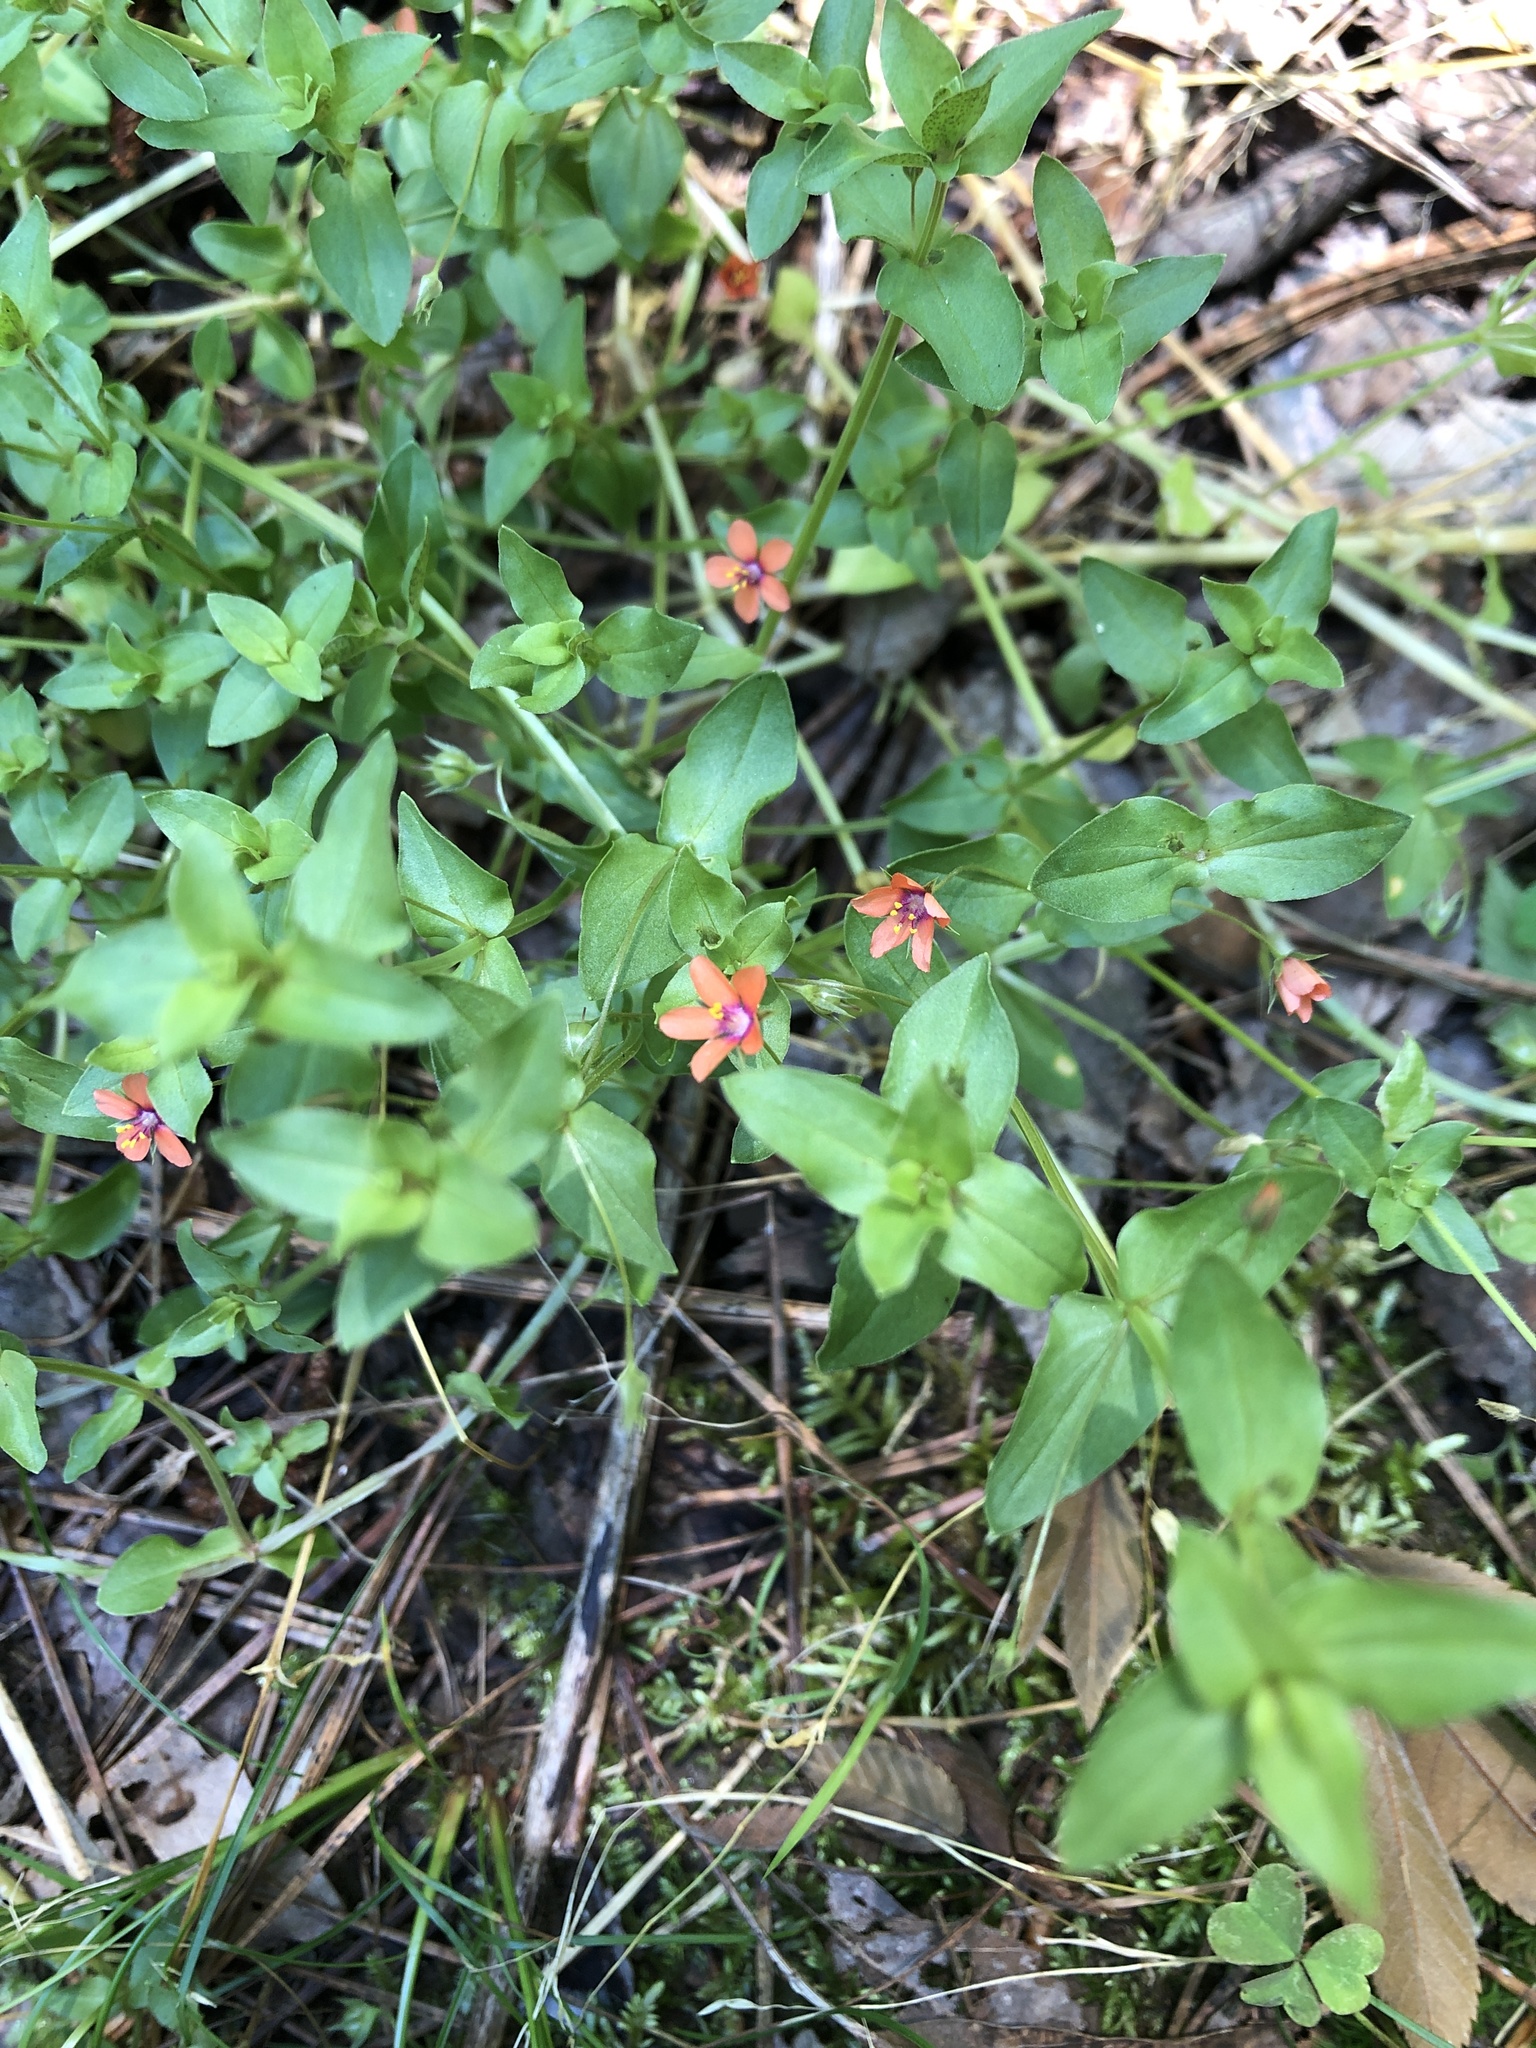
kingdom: Plantae
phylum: Tracheophyta
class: Magnoliopsida
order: Ericales
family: Primulaceae
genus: Lysimachia
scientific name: Lysimachia arvensis
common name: Scarlet pimpernel
